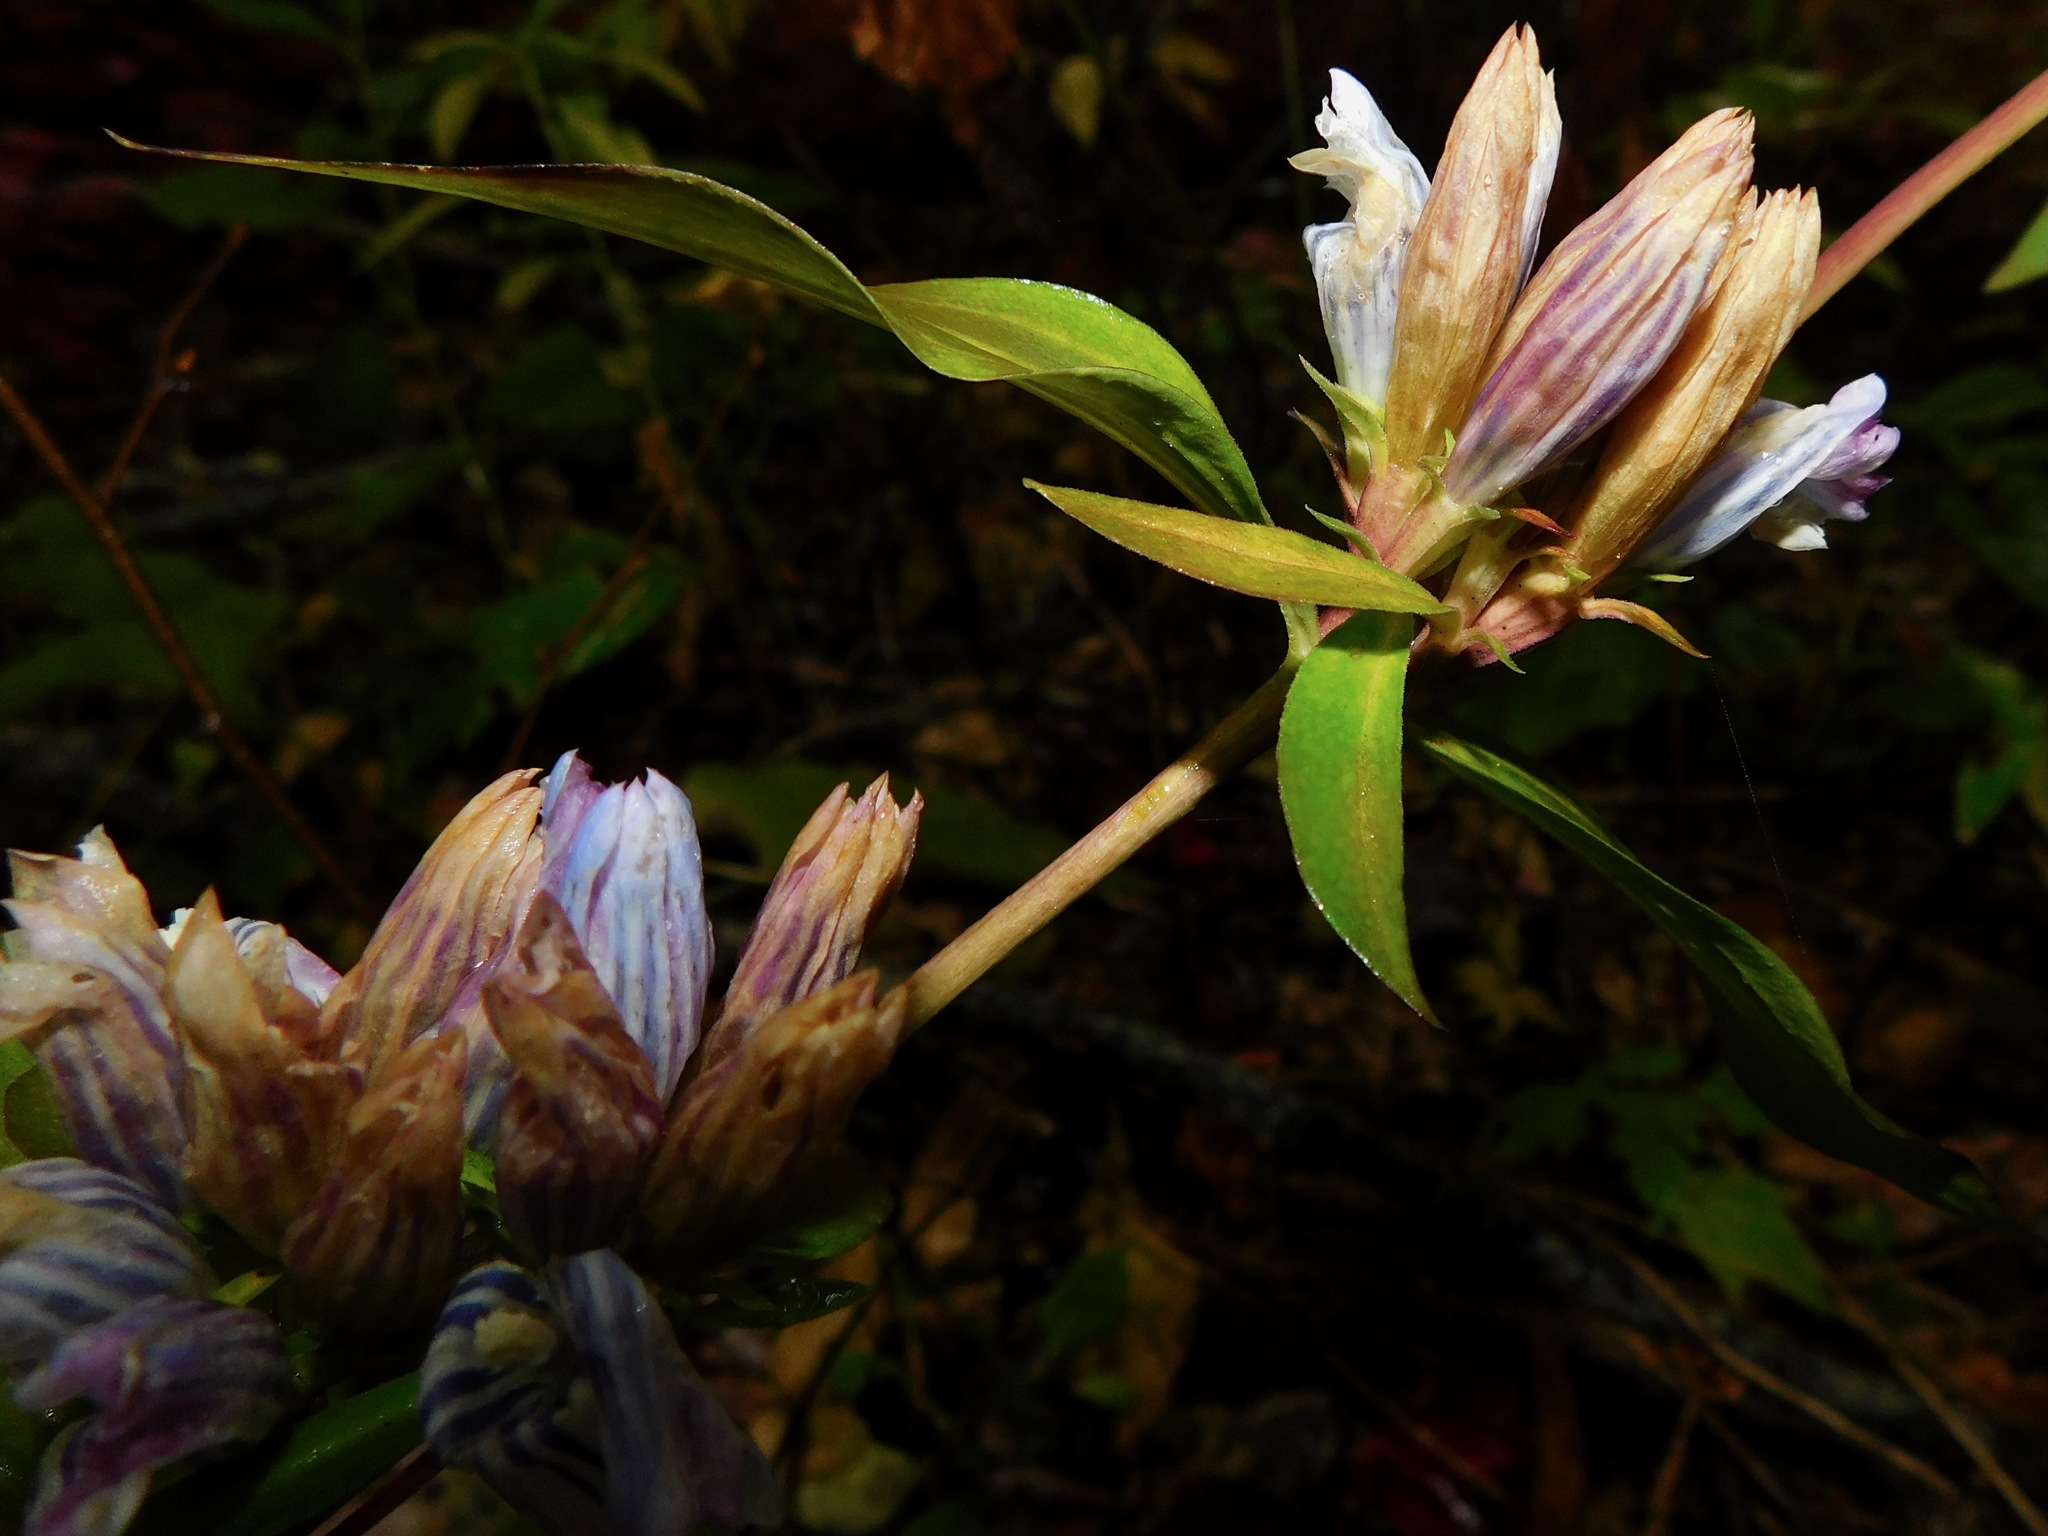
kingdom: Plantae
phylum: Tracheophyta
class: Magnoliopsida
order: Gentianales
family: Gentianaceae
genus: Gentiana
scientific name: Gentiana saponaria
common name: Soapwort gentian
